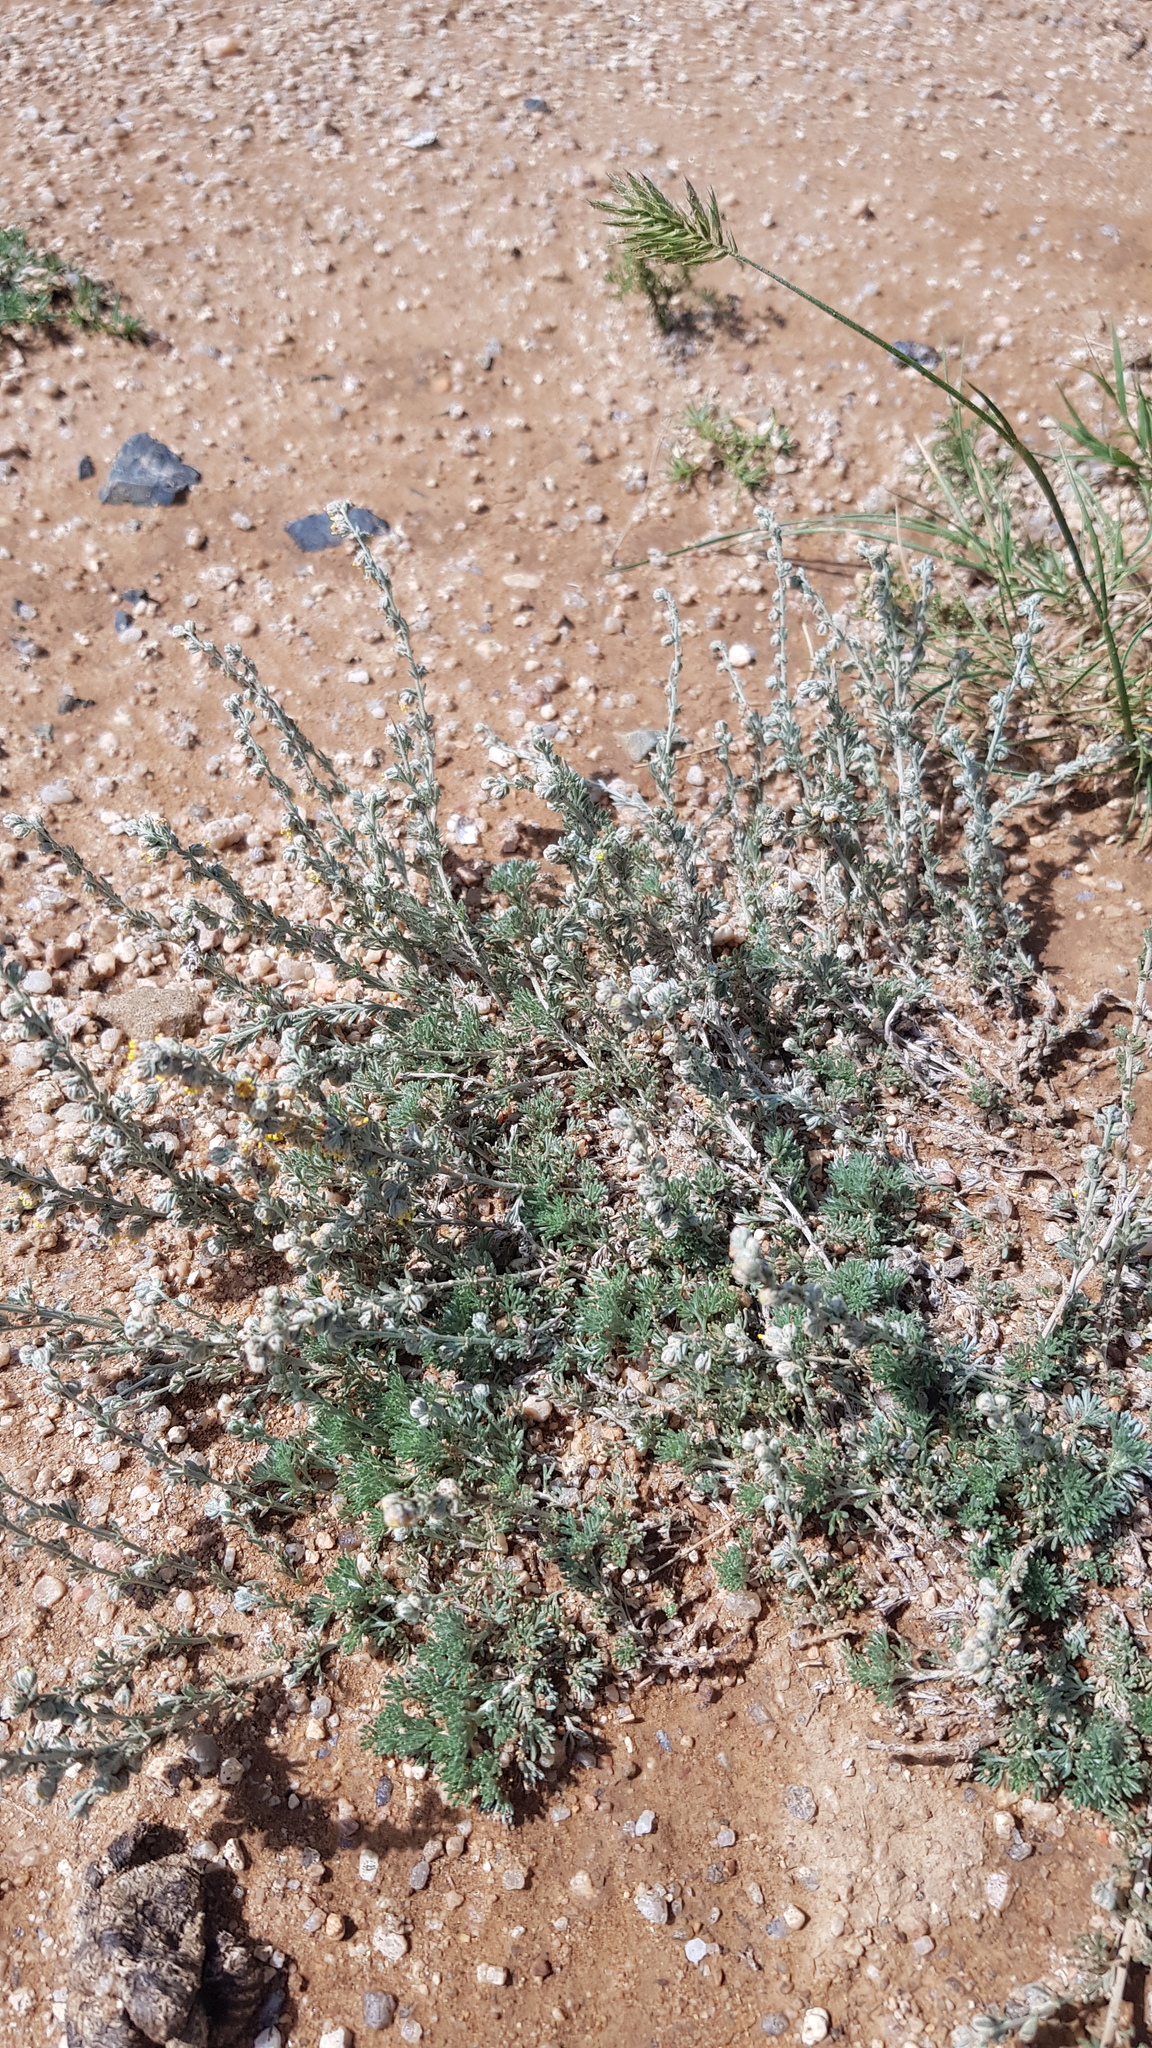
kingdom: Plantae
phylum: Tracheophyta
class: Magnoliopsida
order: Asterales
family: Asteraceae
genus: Artemisia
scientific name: Artemisia frigida
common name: Prairie sagewort
